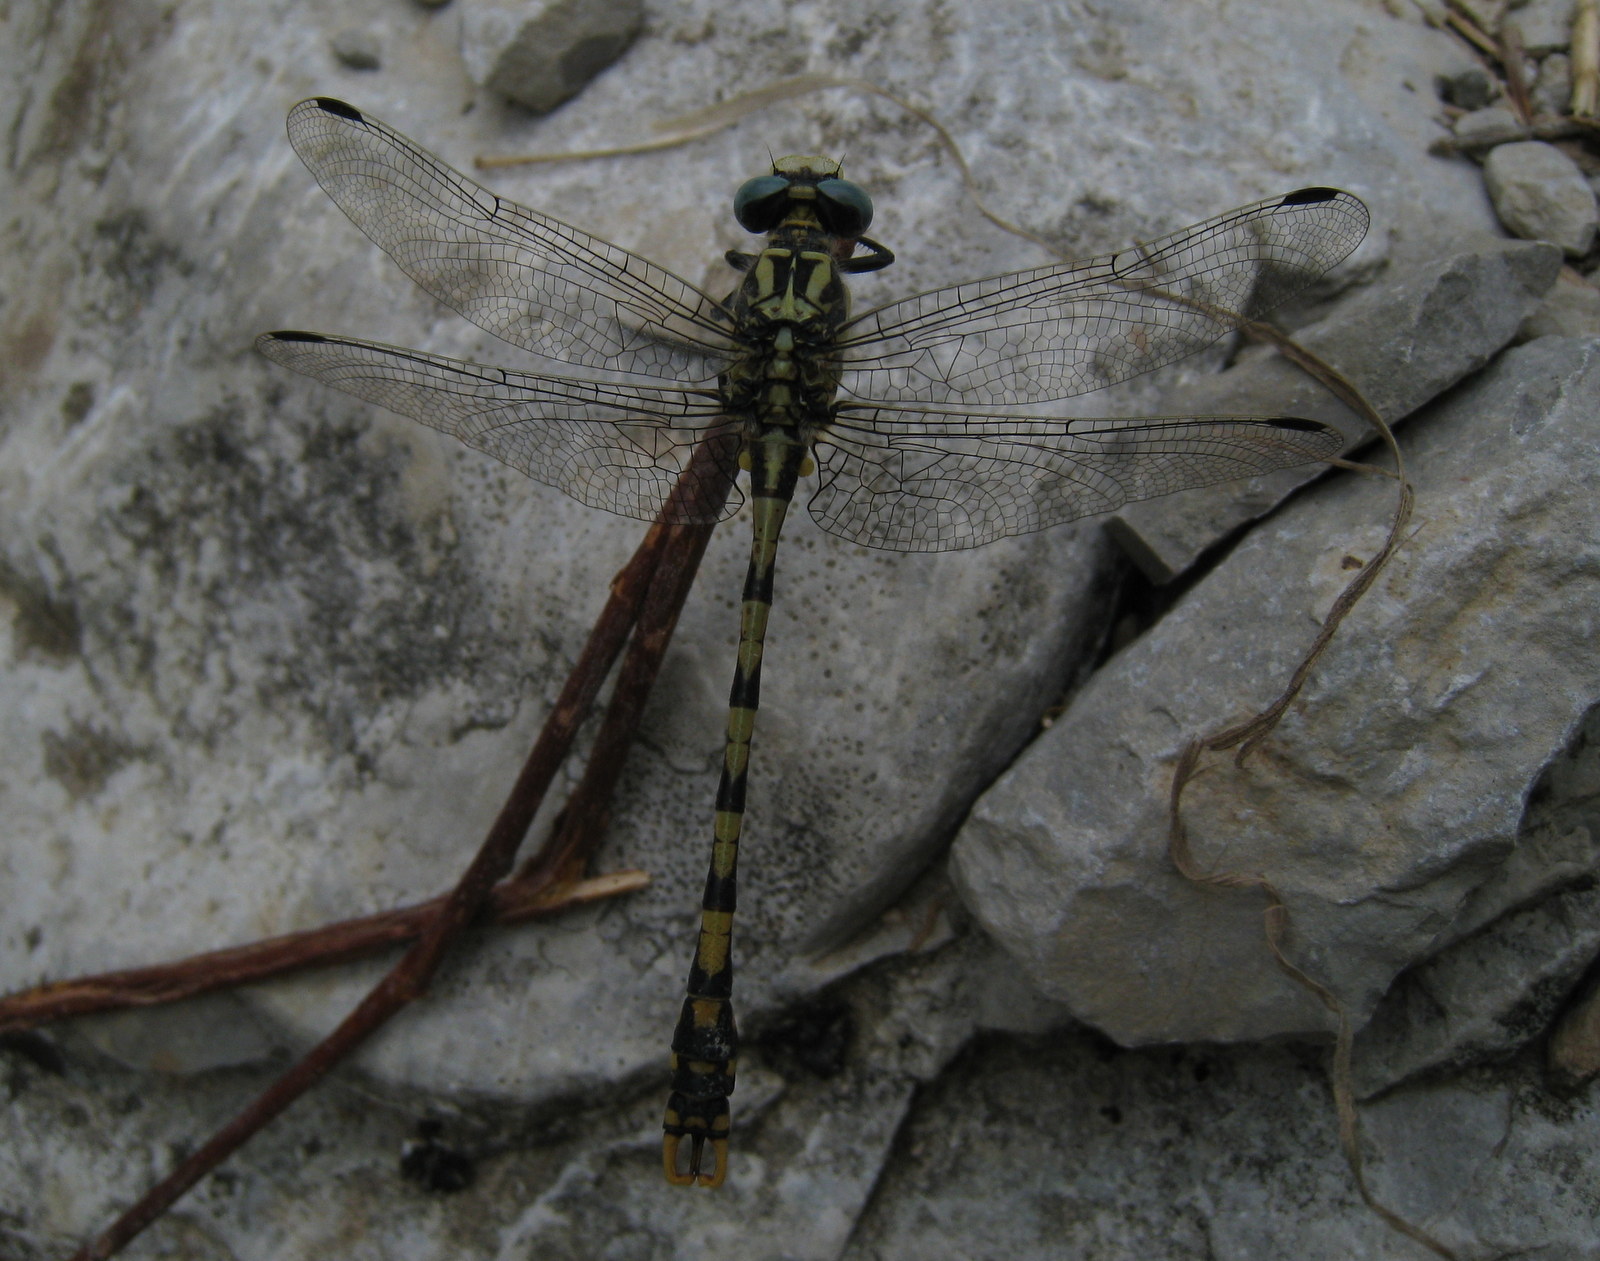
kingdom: Animalia
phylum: Arthropoda
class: Insecta
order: Odonata
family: Gomphidae
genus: Onychogomphus
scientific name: Onychogomphus uncatus
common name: Large pincertail
